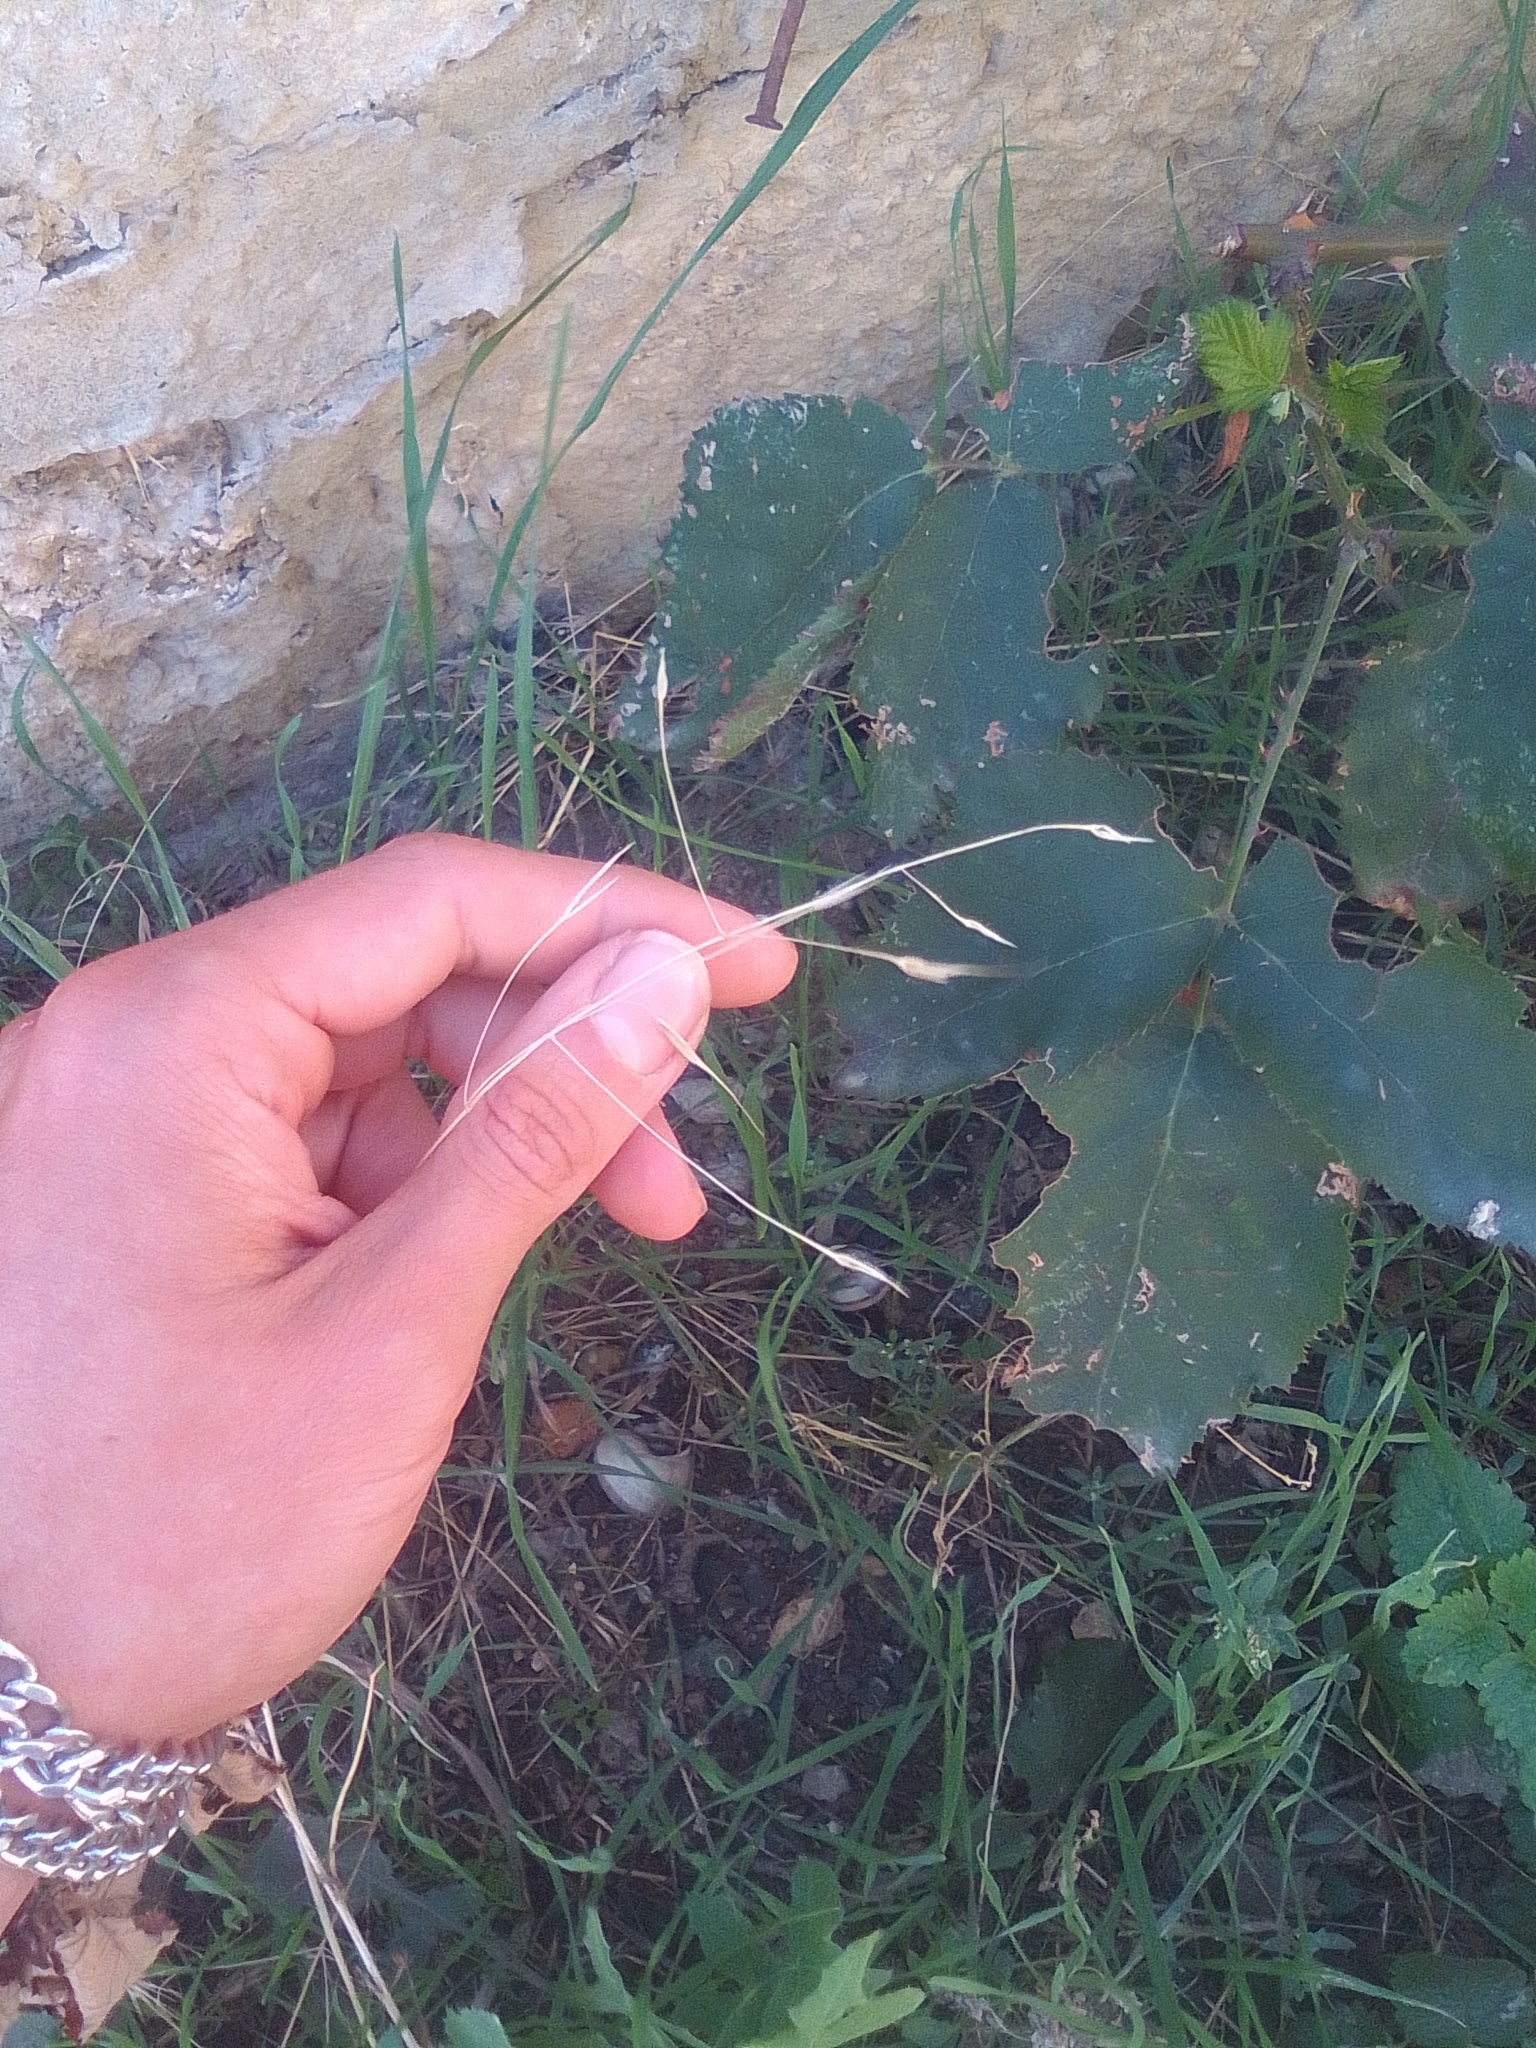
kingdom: Plantae
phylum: Tracheophyta
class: Liliopsida
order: Poales
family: Poaceae
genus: Bromus
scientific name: Bromus sterilis
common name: Poverty brome
